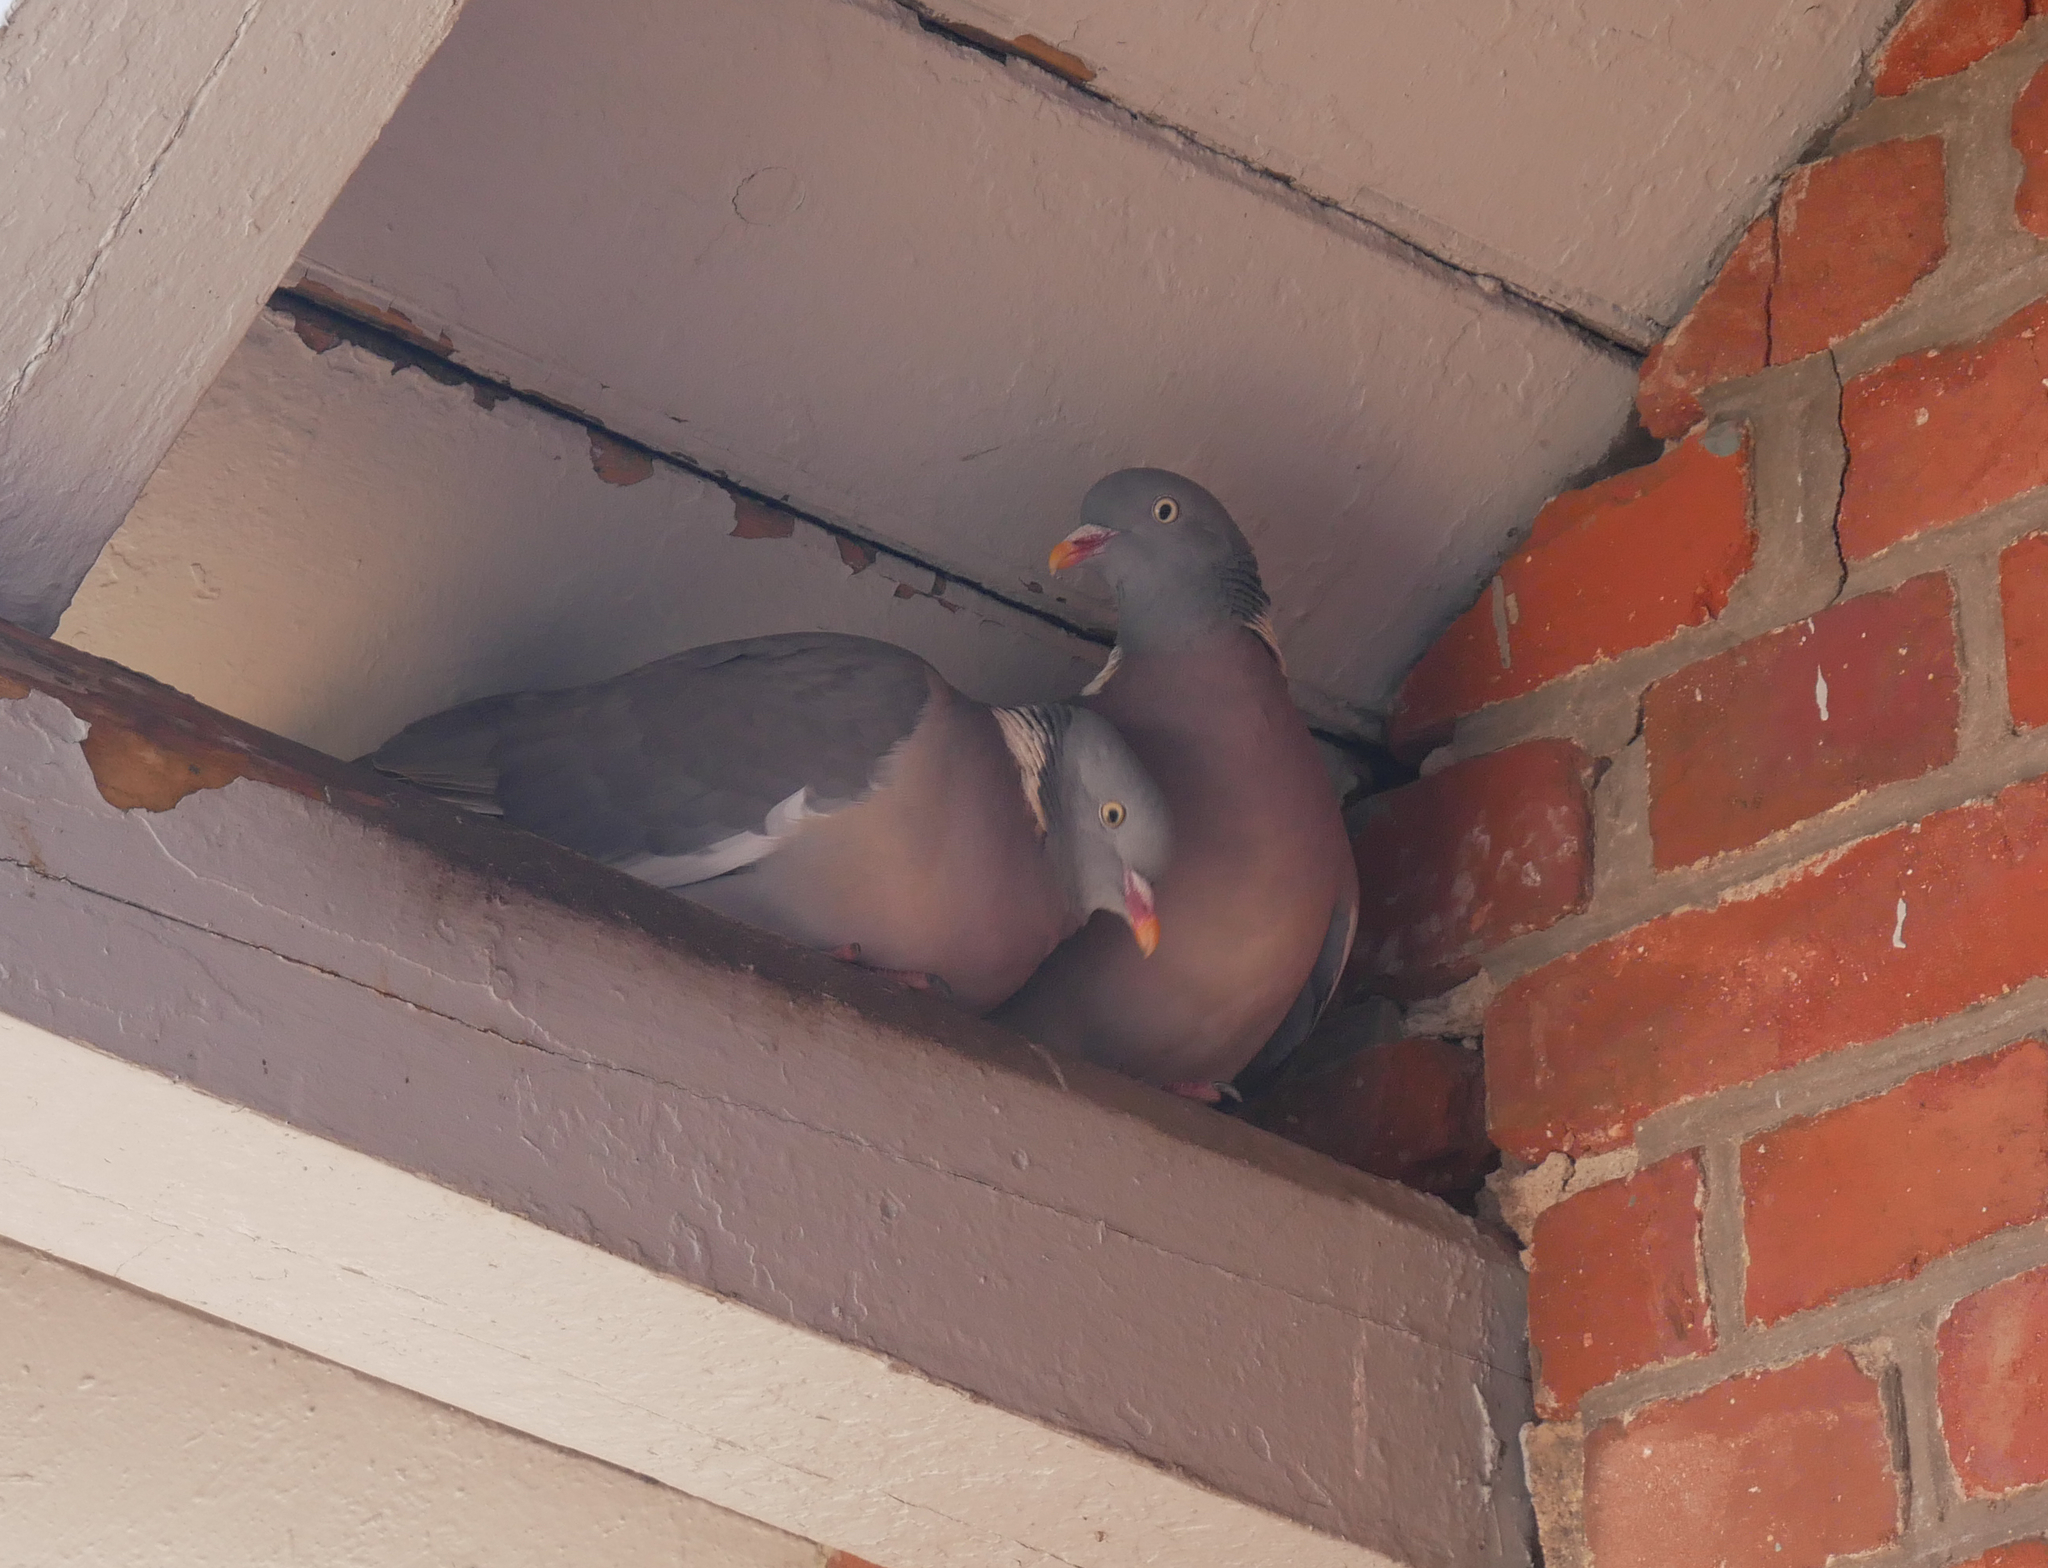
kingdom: Animalia
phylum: Chordata
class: Aves
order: Columbiformes
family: Columbidae
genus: Columba
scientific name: Columba palumbus
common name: Common wood pigeon
